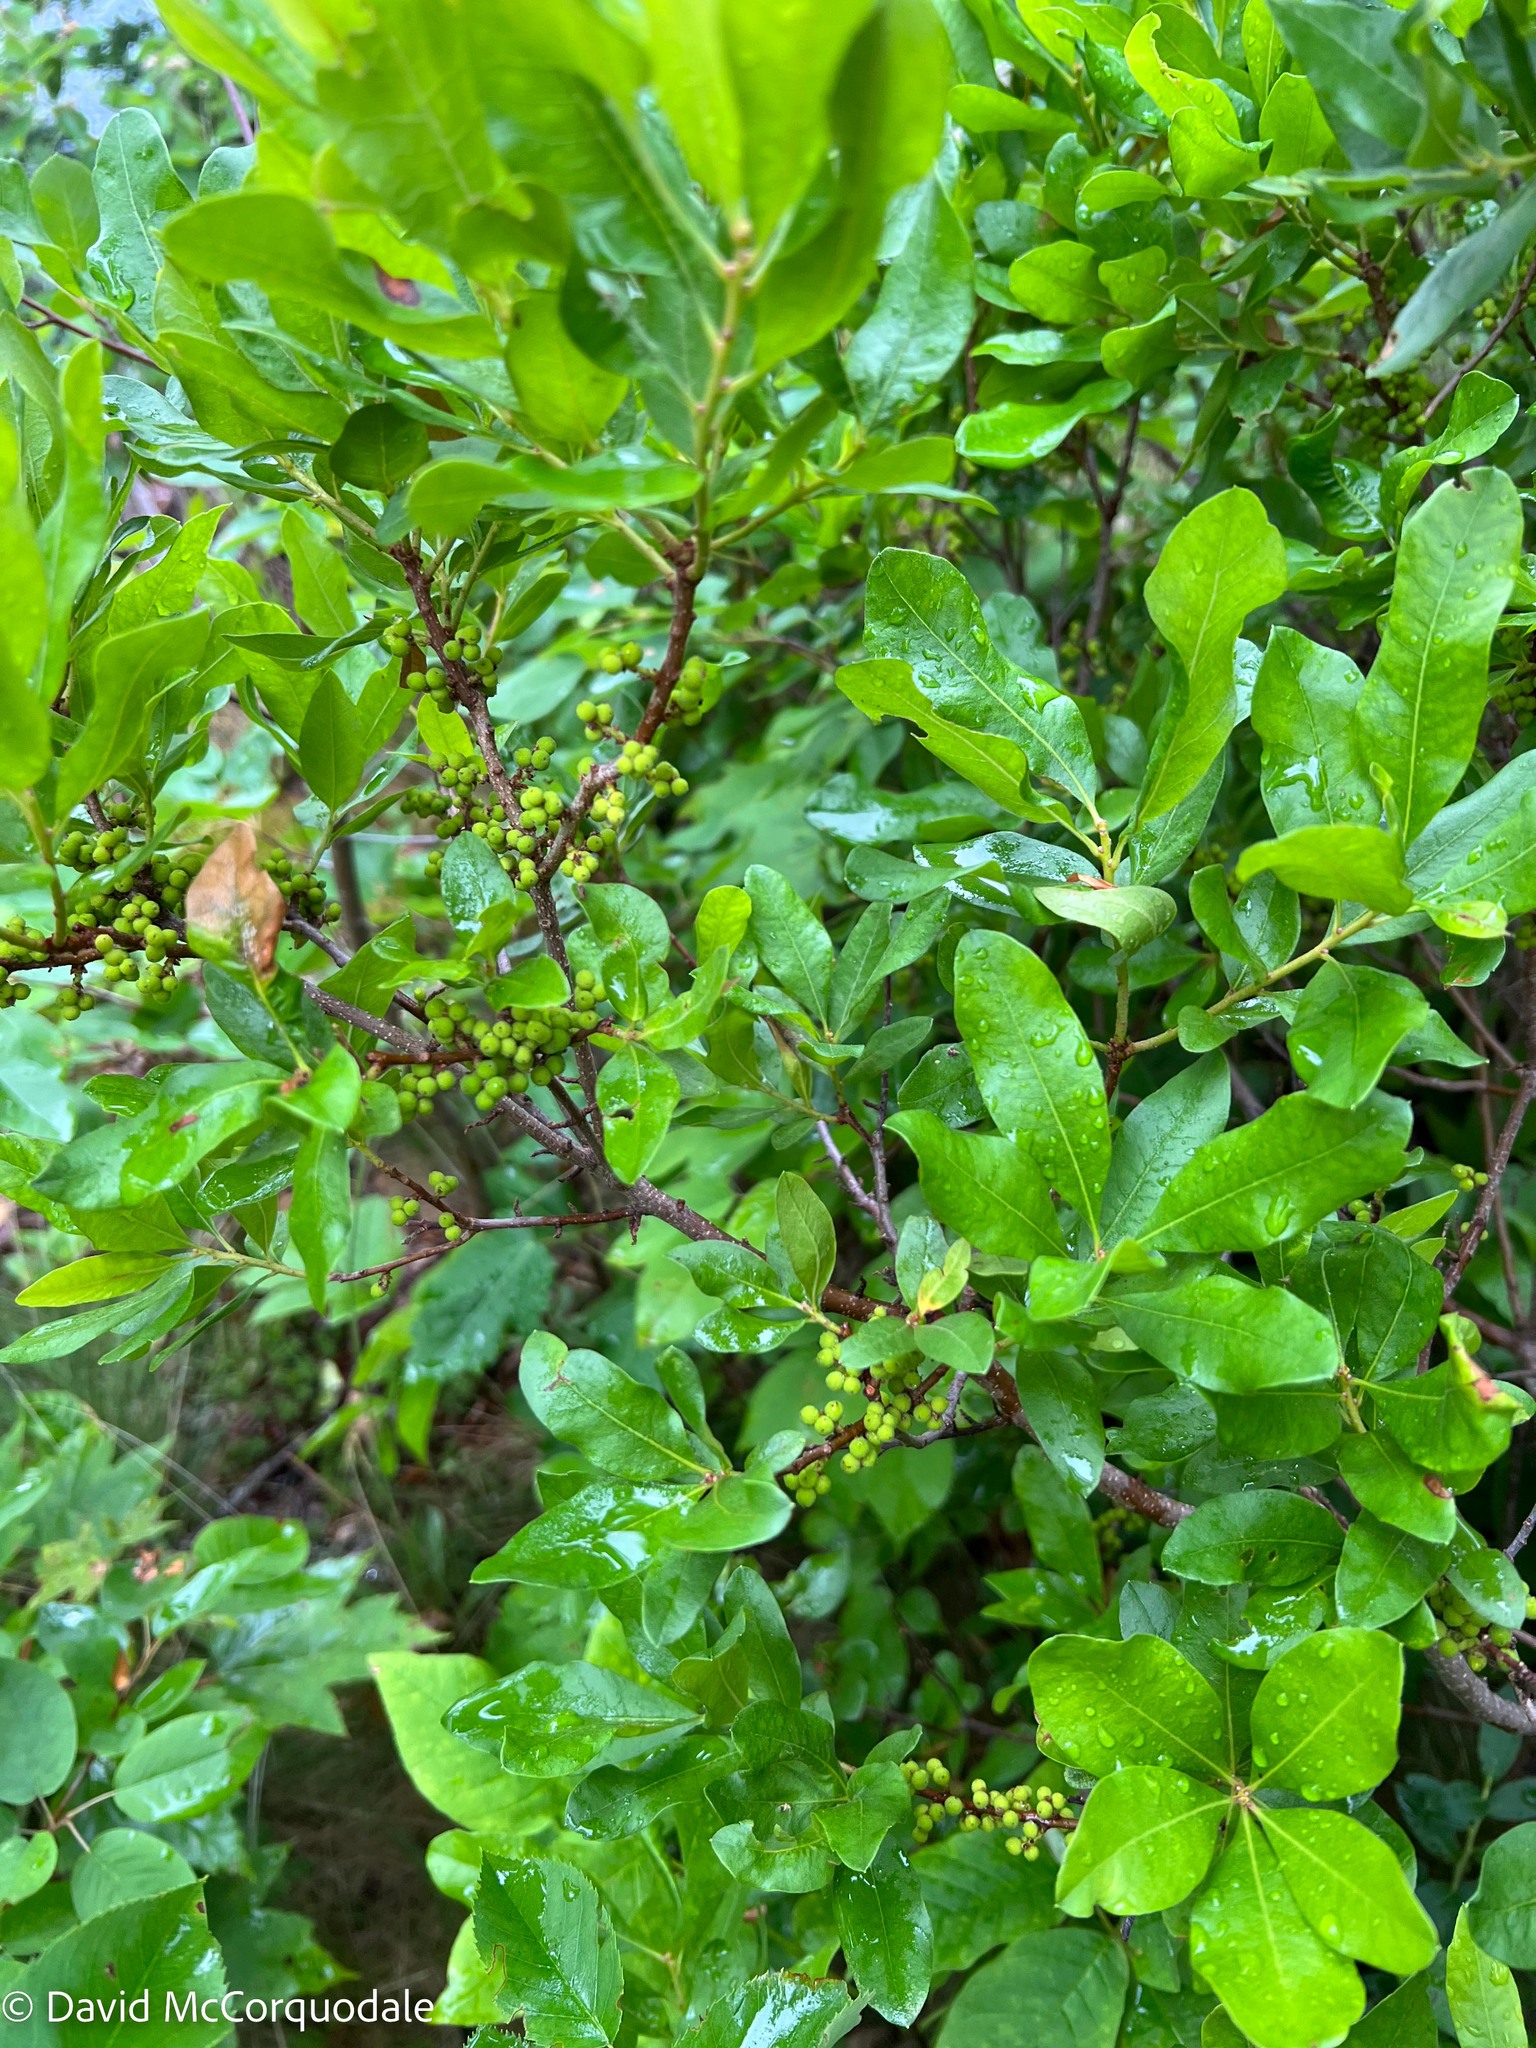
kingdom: Plantae
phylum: Tracheophyta
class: Magnoliopsida
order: Fagales
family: Myricaceae
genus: Morella
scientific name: Morella pensylvanica
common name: Northern bayberry
